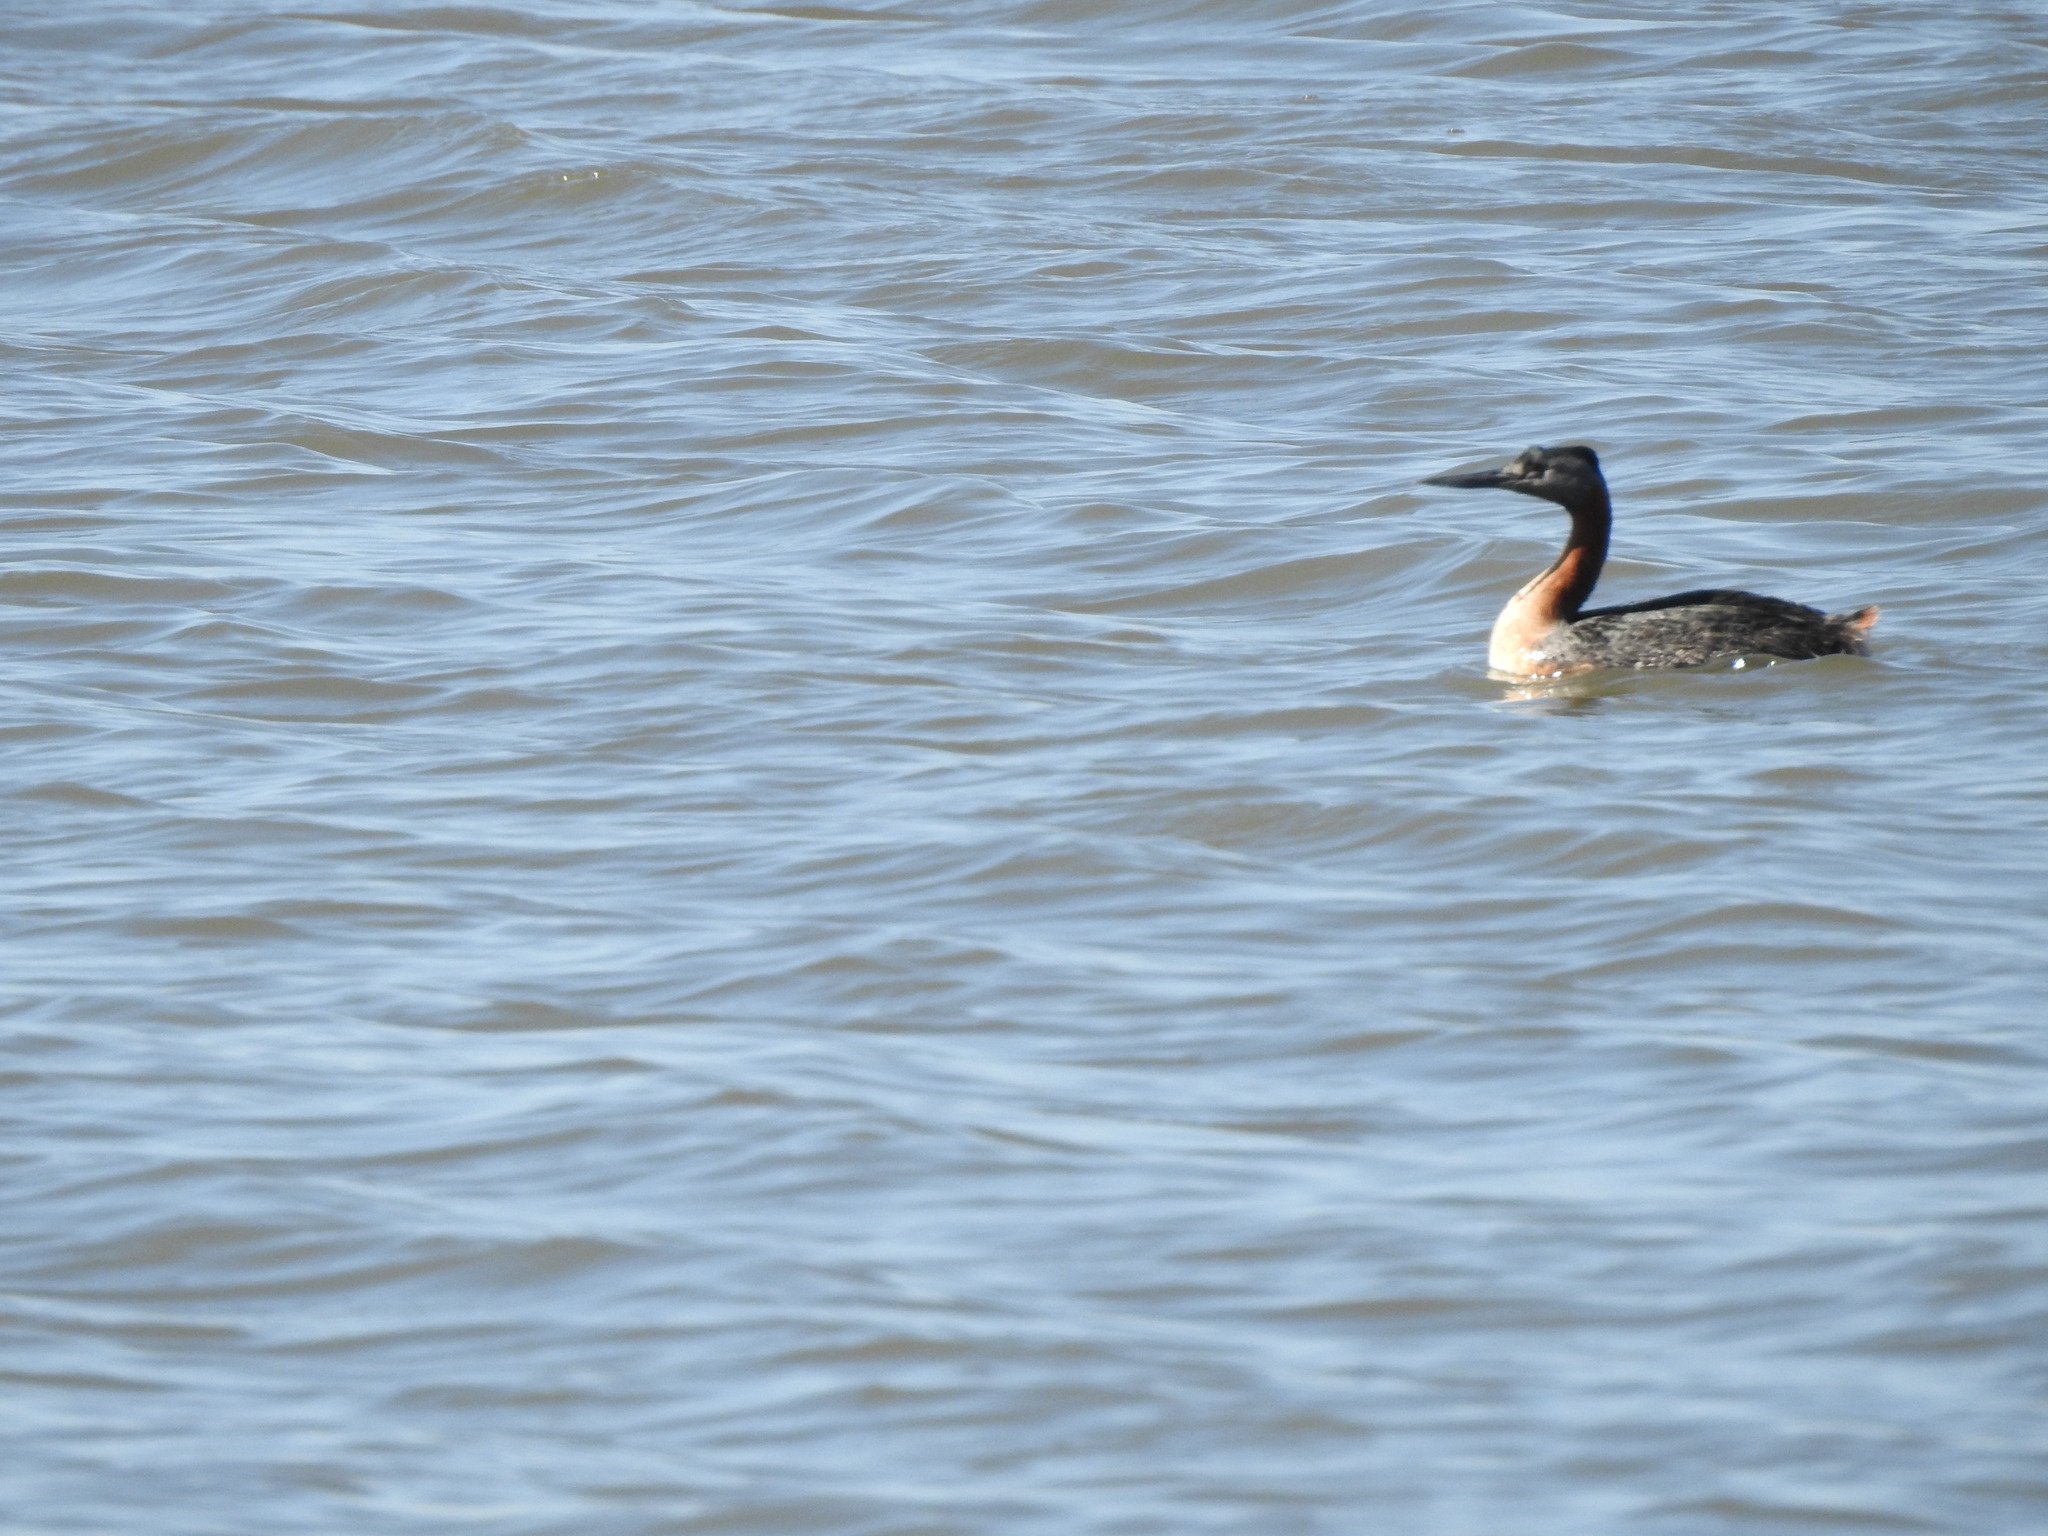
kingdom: Animalia
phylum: Chordata
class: Aves
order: Podicipediformes
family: Podicipedidae
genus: Podiceps
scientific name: Podiceps major
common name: Great grebe
